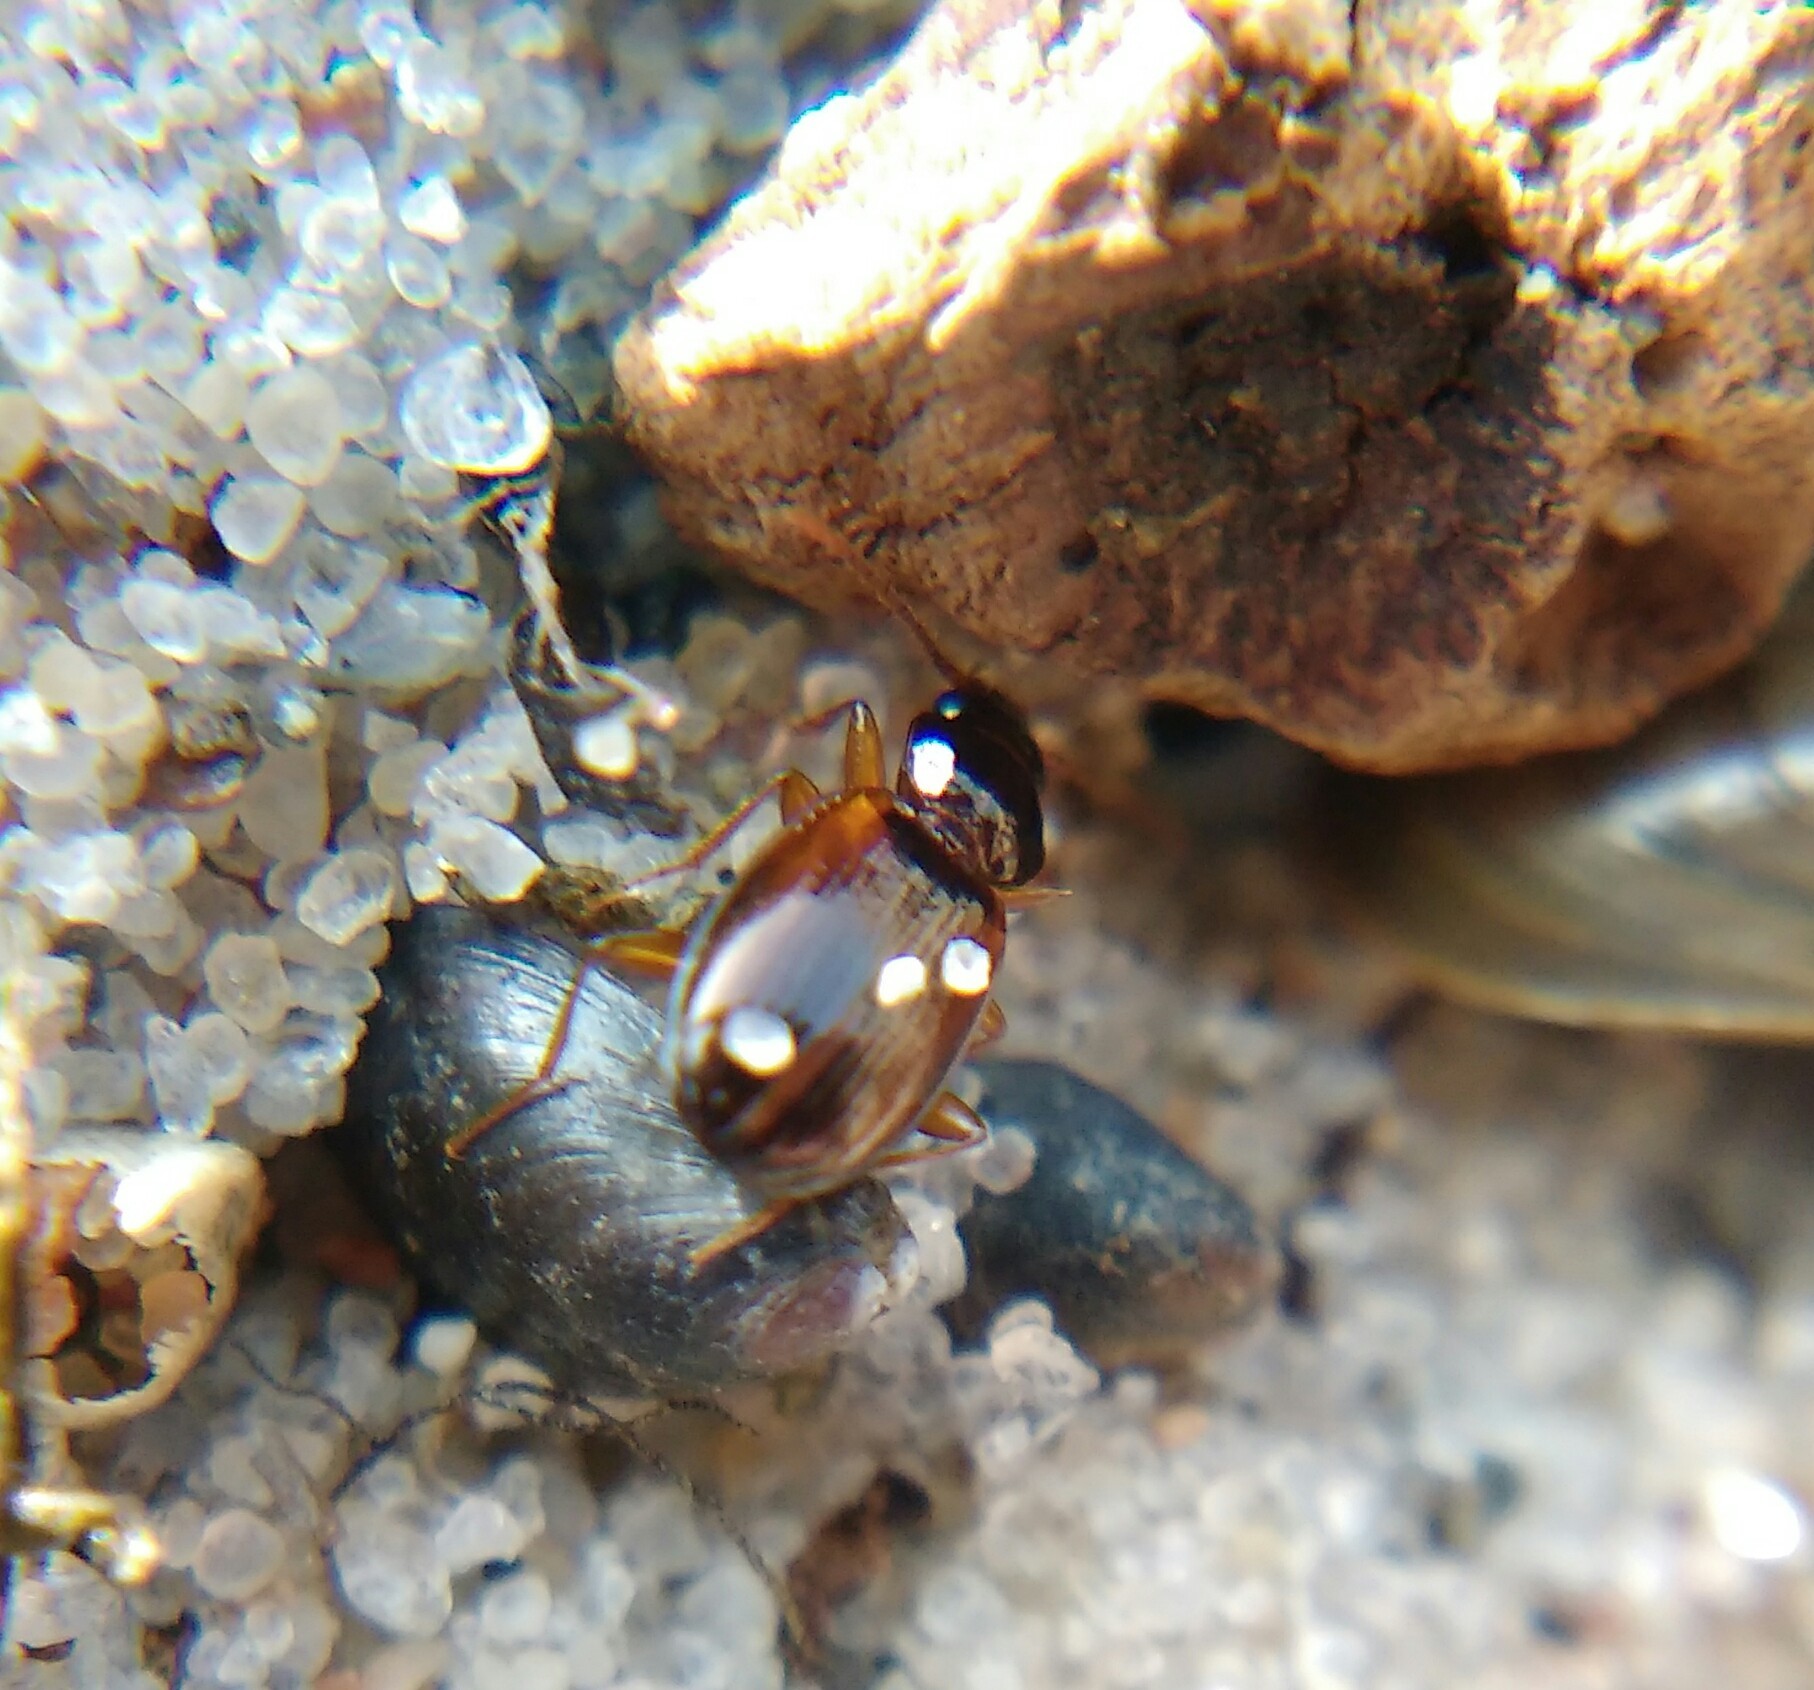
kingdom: Animalia
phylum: Arthropoda
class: Insecta
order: Coleoptera
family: Carabidae
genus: Trechus
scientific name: Trechus
